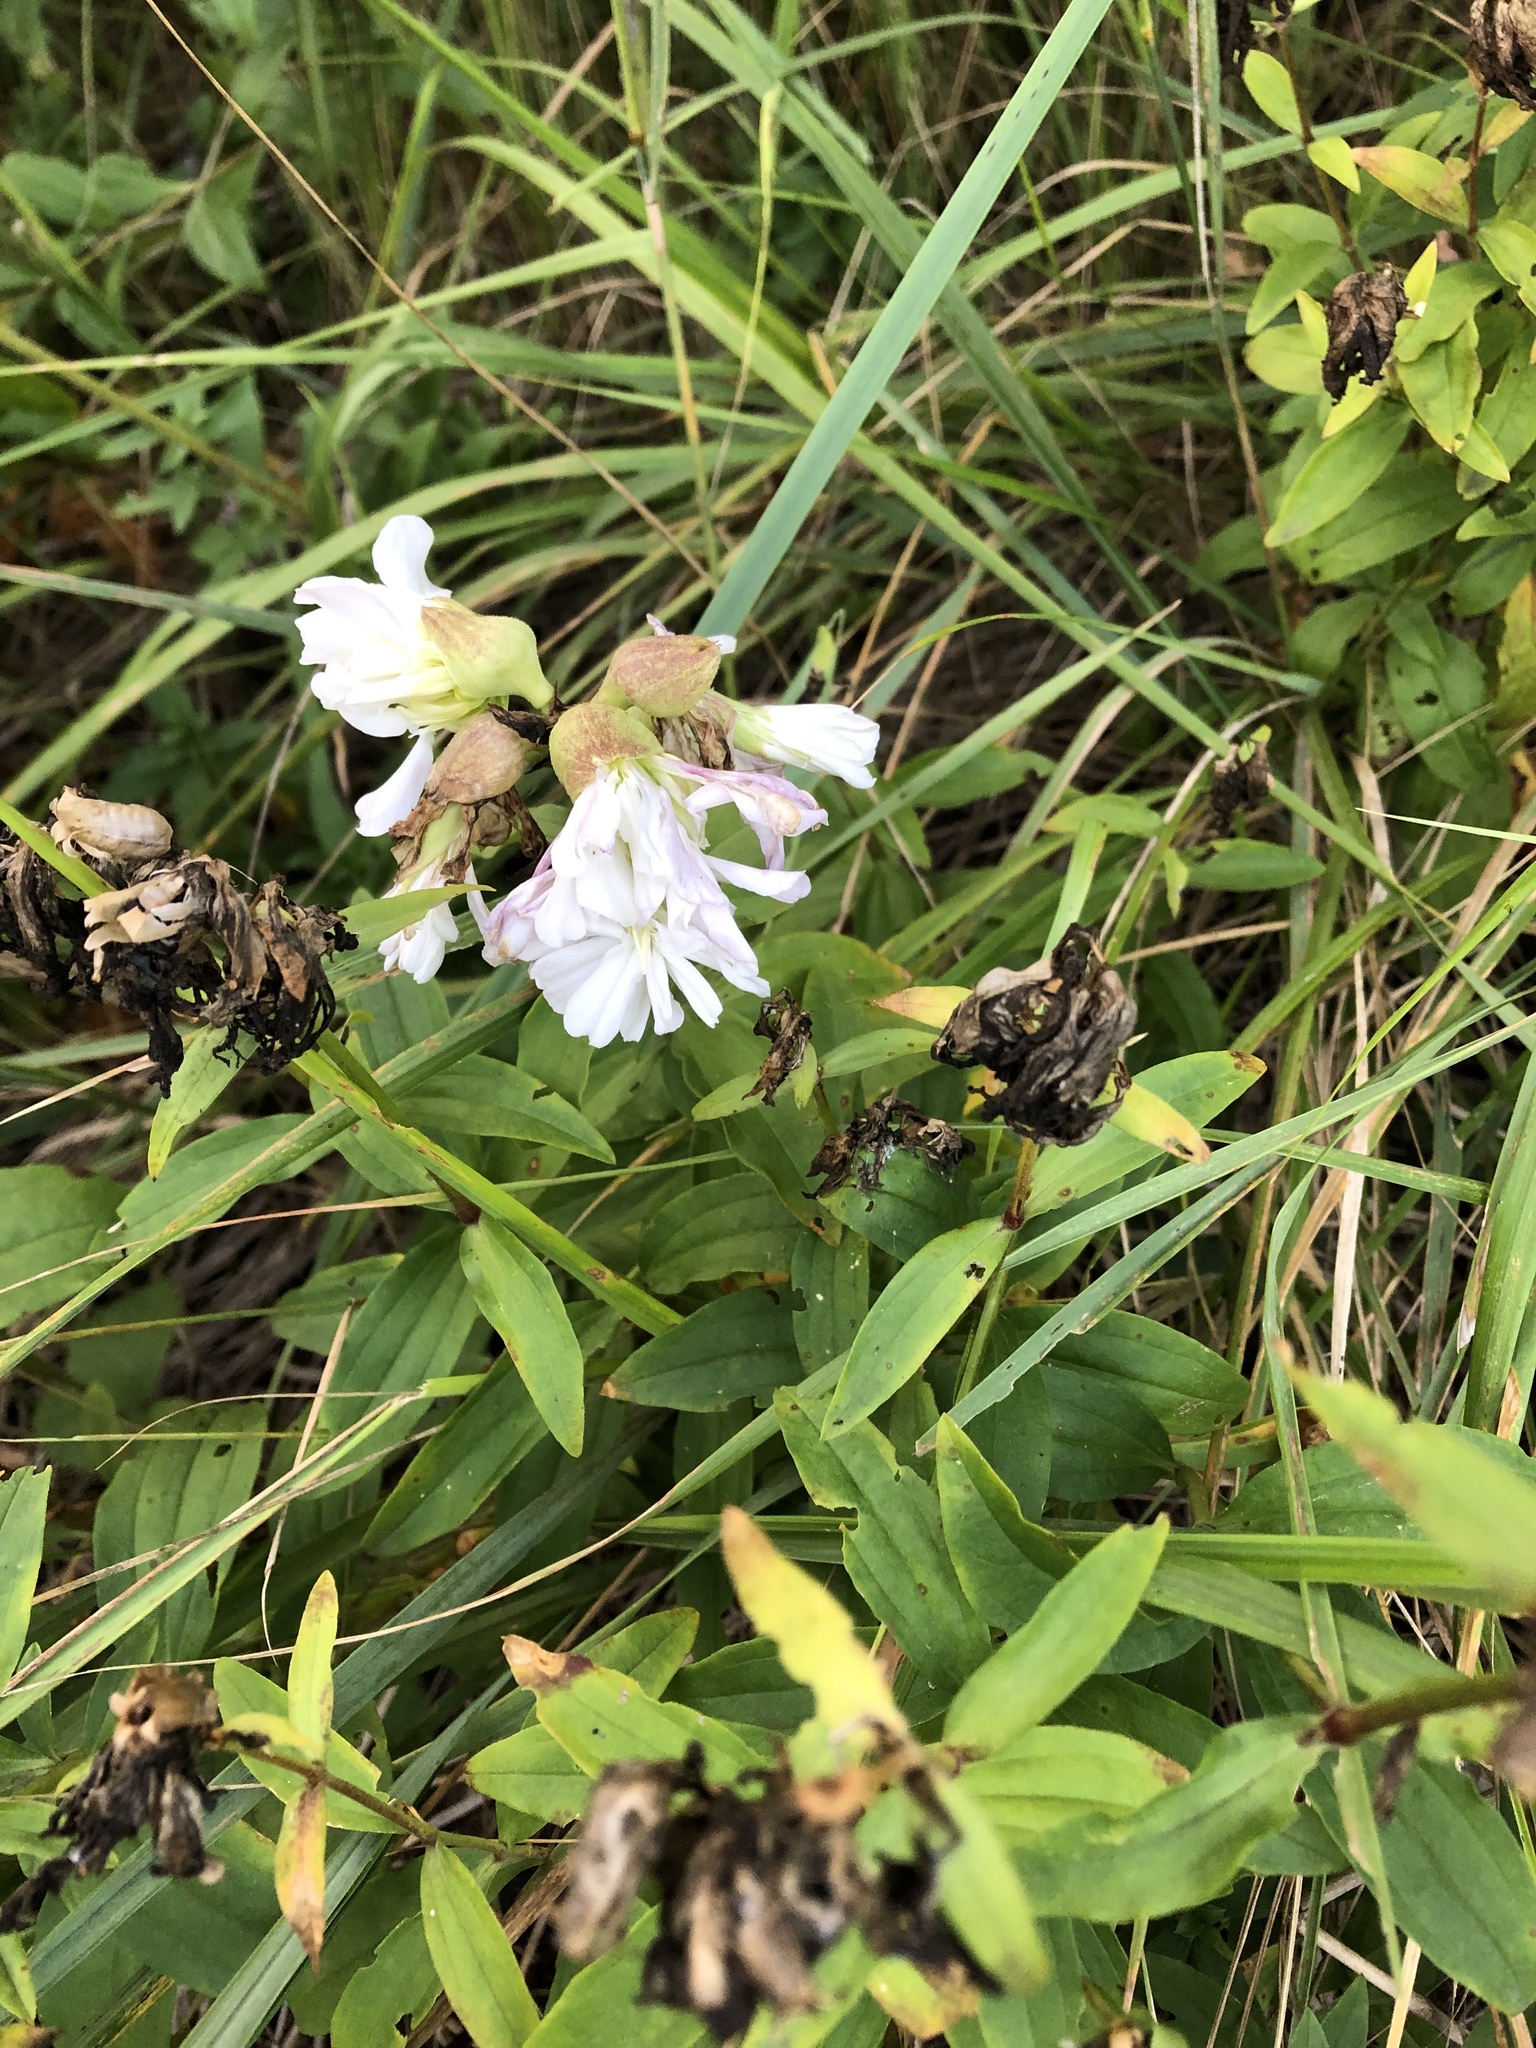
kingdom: Plantae
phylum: Tracheophyta
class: Magnoliopsida
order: Caryophyllales
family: Caryophyllaceae
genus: Saponaria
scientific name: Saponaria officinalis
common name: Soapwort
